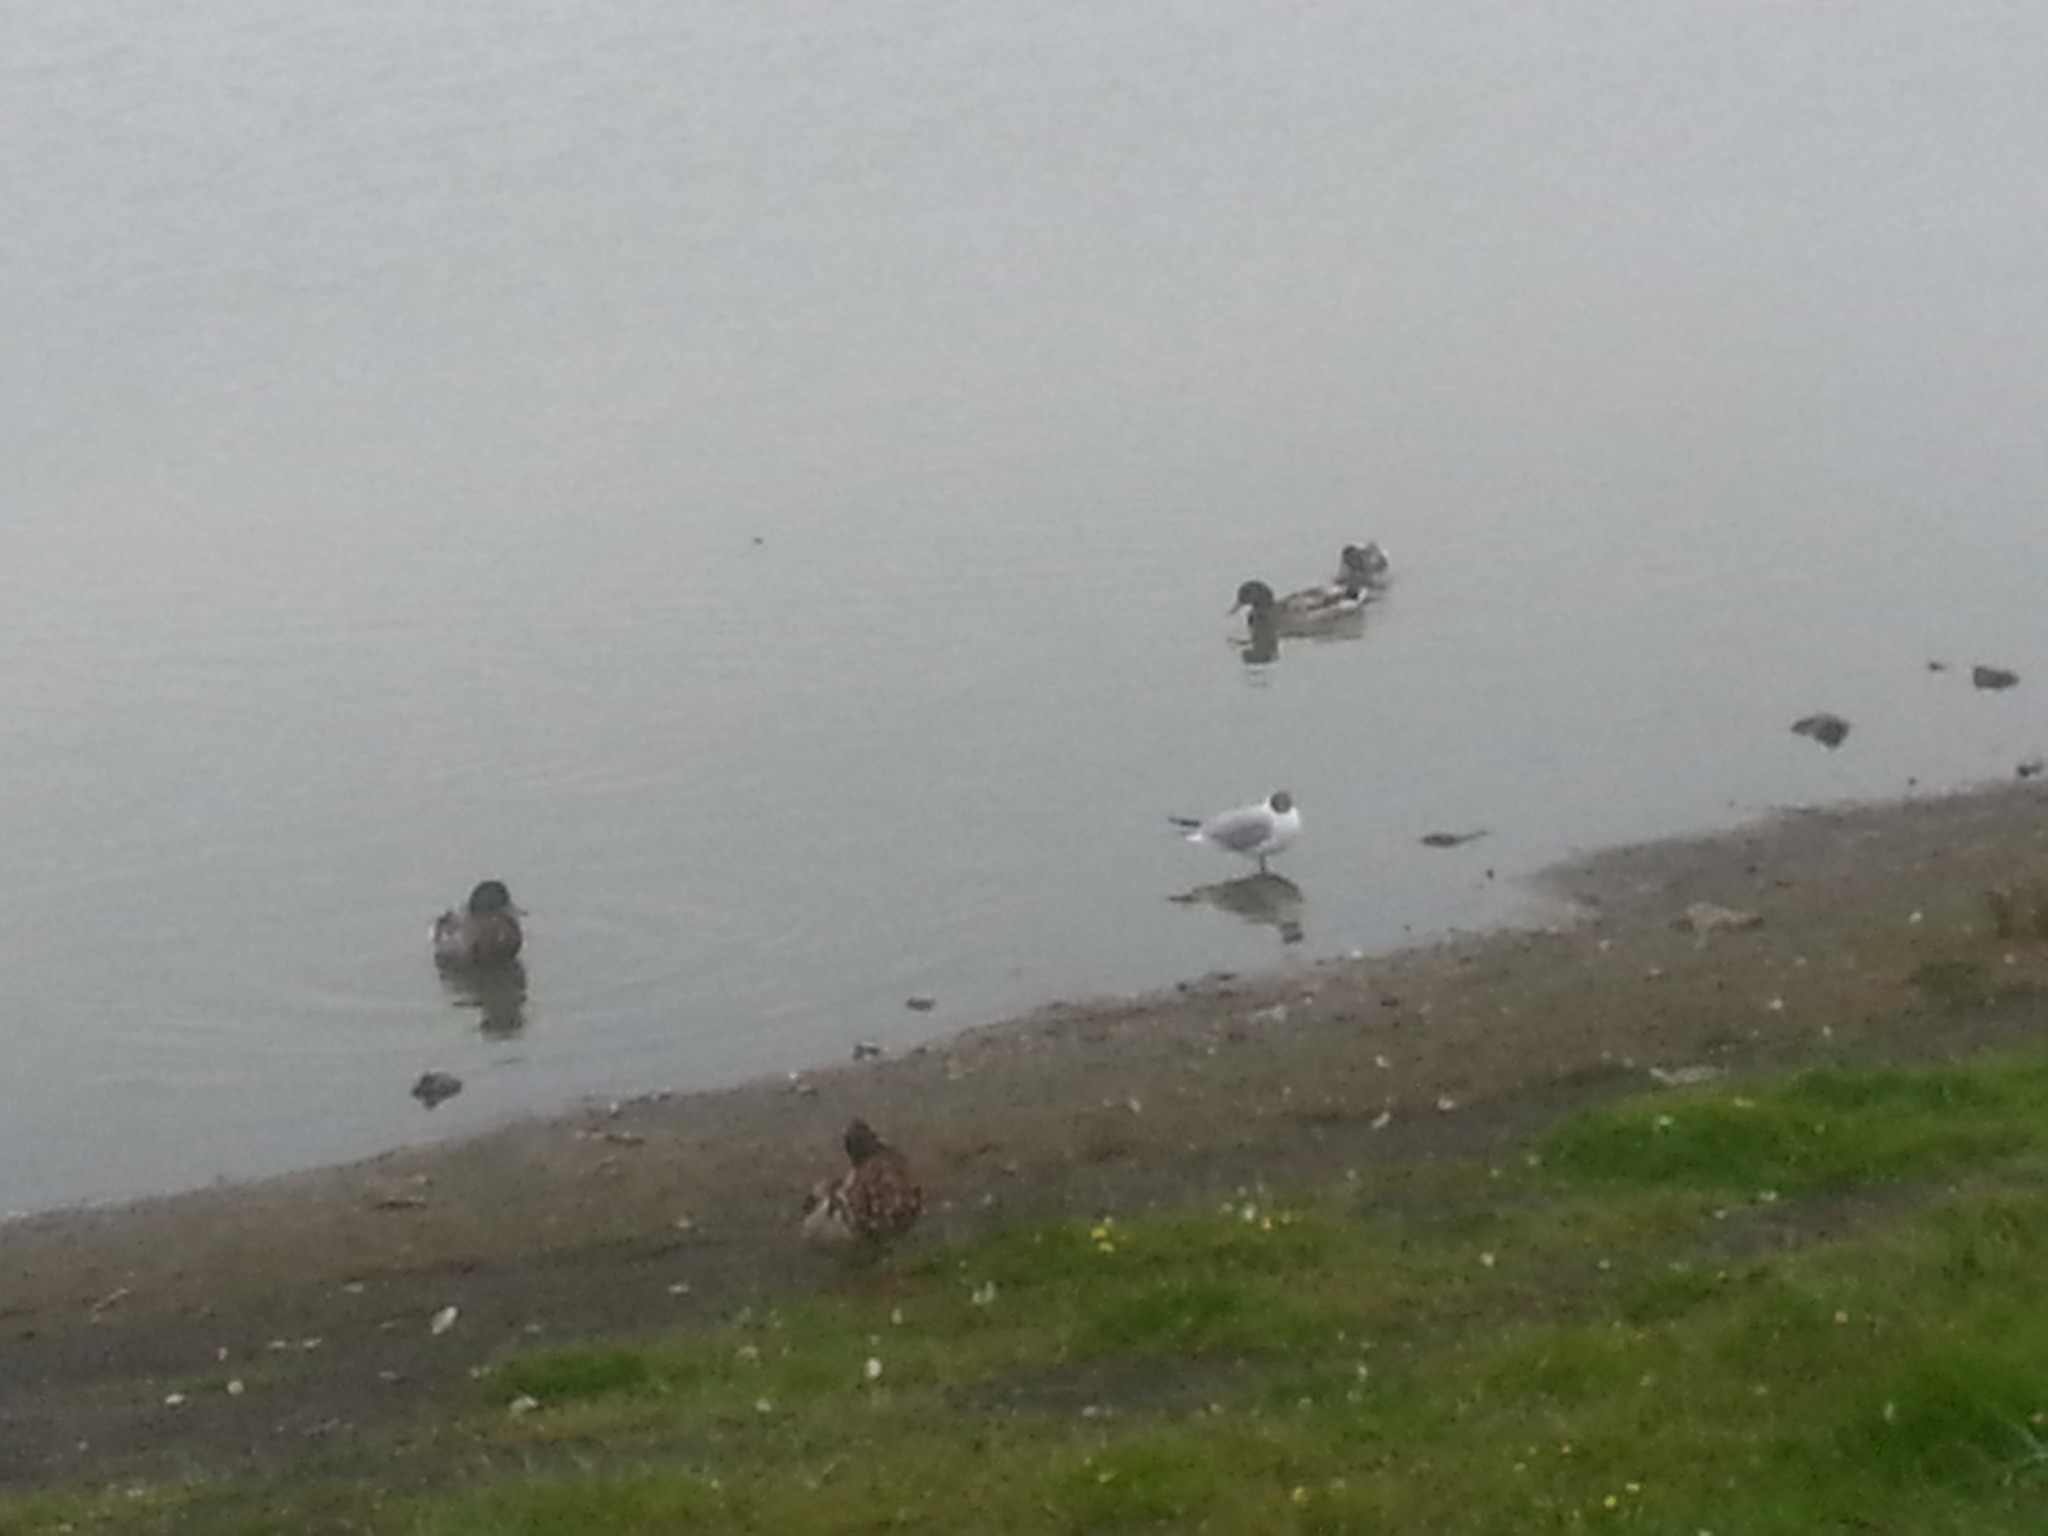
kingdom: Animalia
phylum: Chordata
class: Aves
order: Anseriformes
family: Anatidae
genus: Anas
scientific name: Anas platyrhynchos
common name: Mallard
